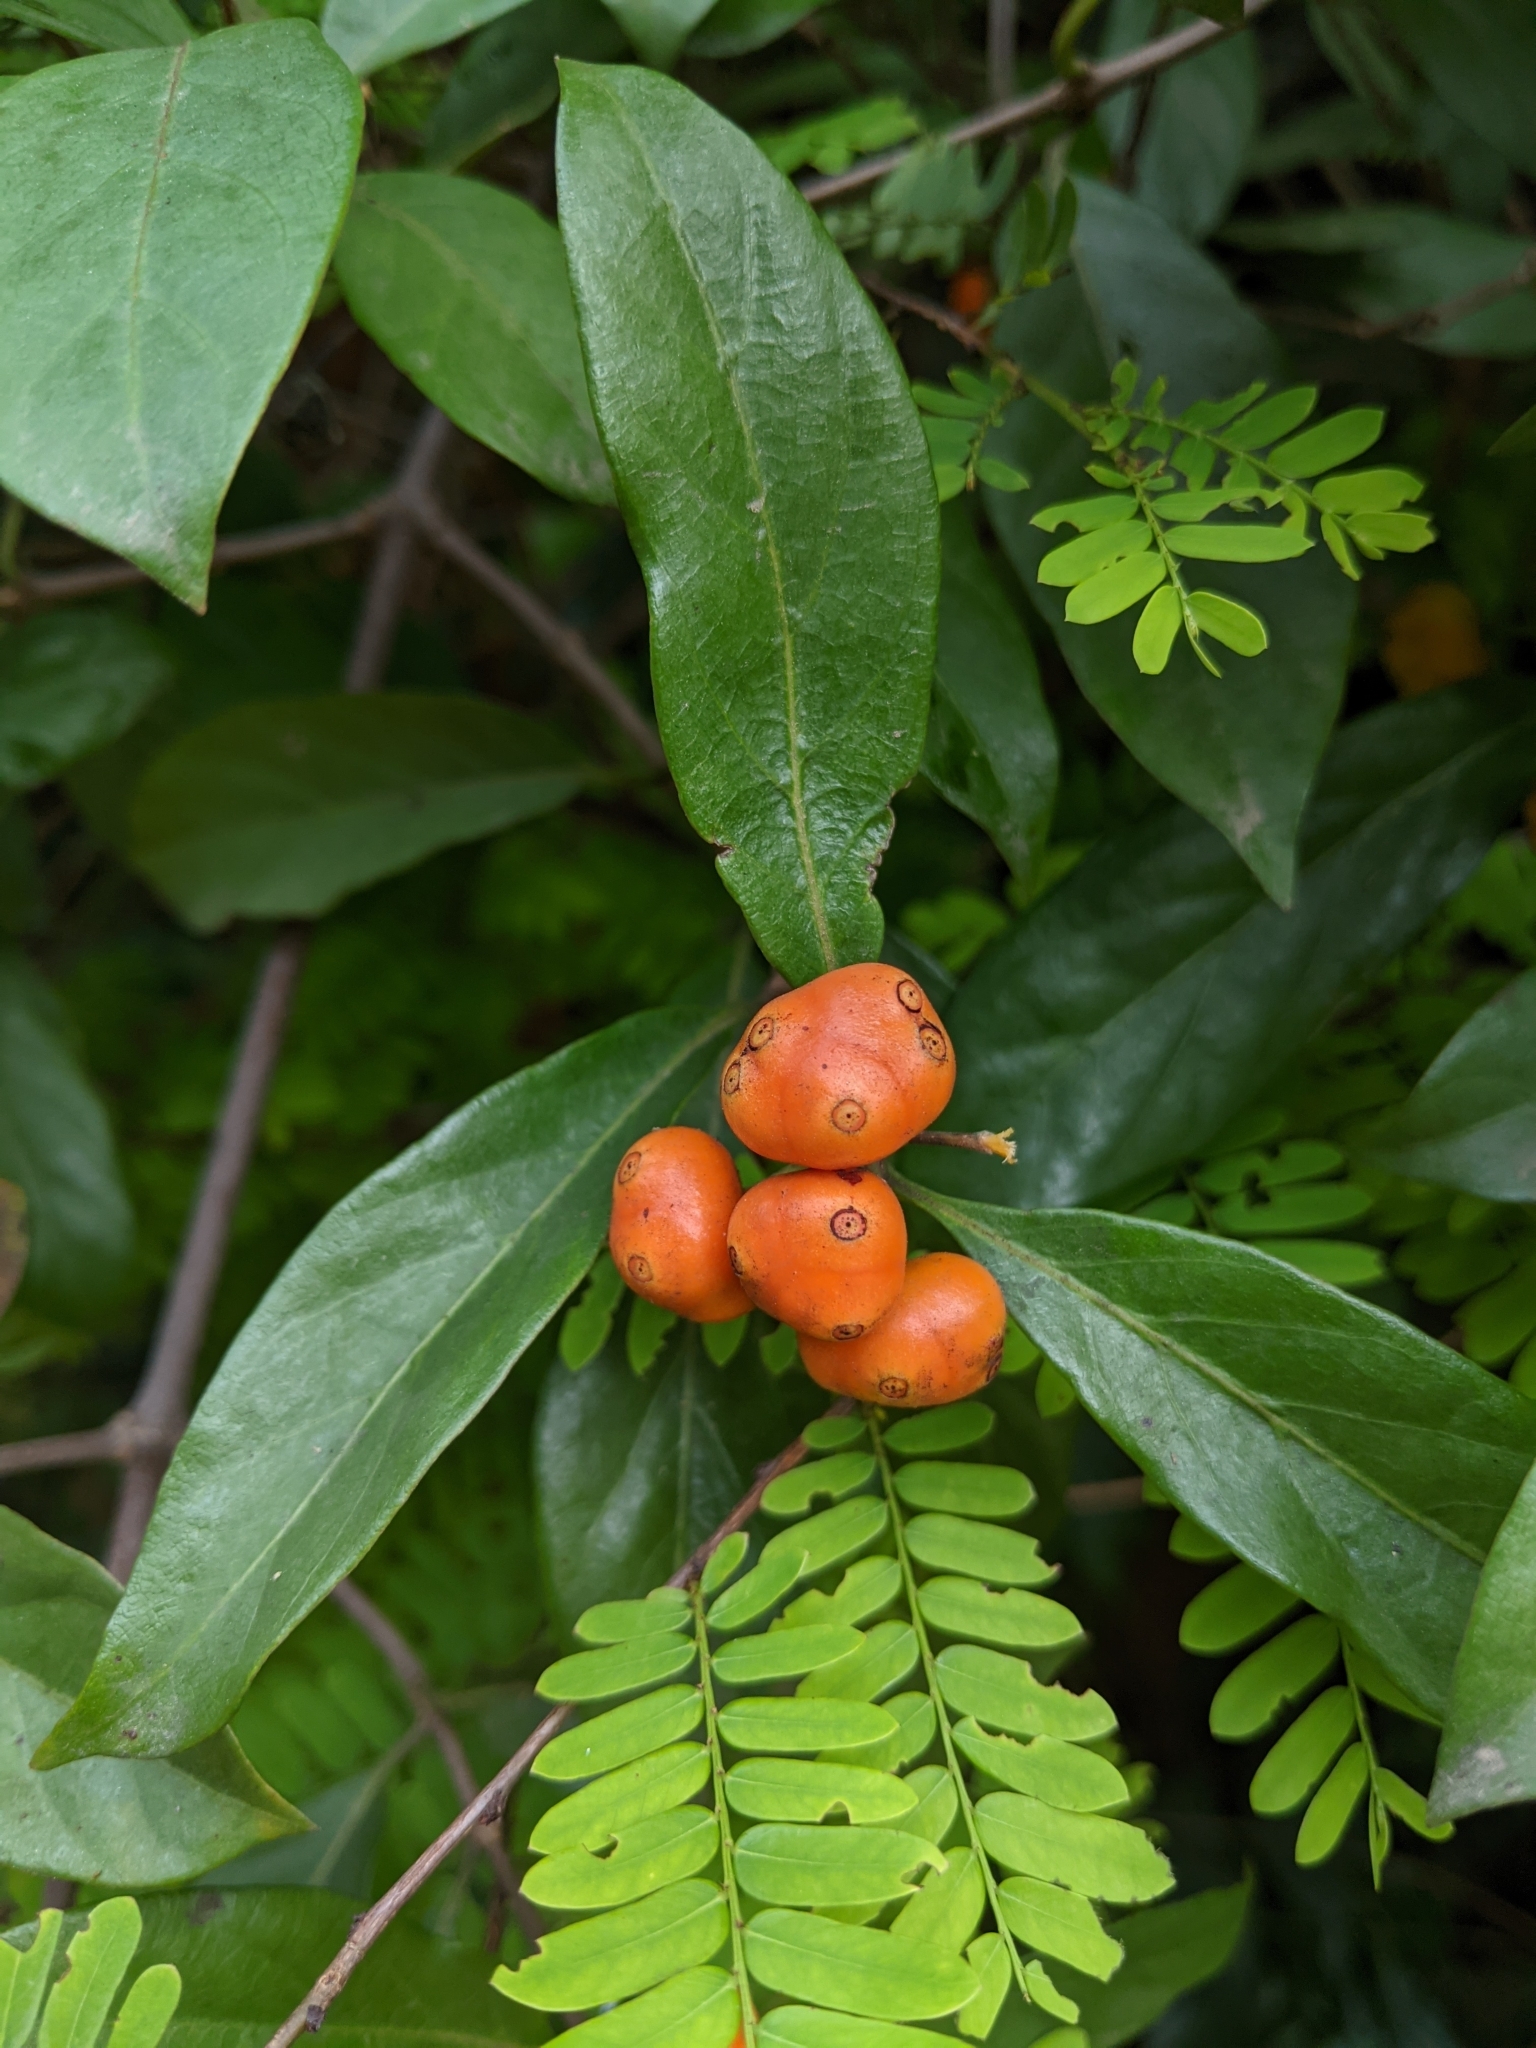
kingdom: Plantae
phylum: Tracheophyta
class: Magnoliopsida
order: Gentianales
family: Rubiaceae
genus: Gynochthodes
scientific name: Gynochthodes umbellata
